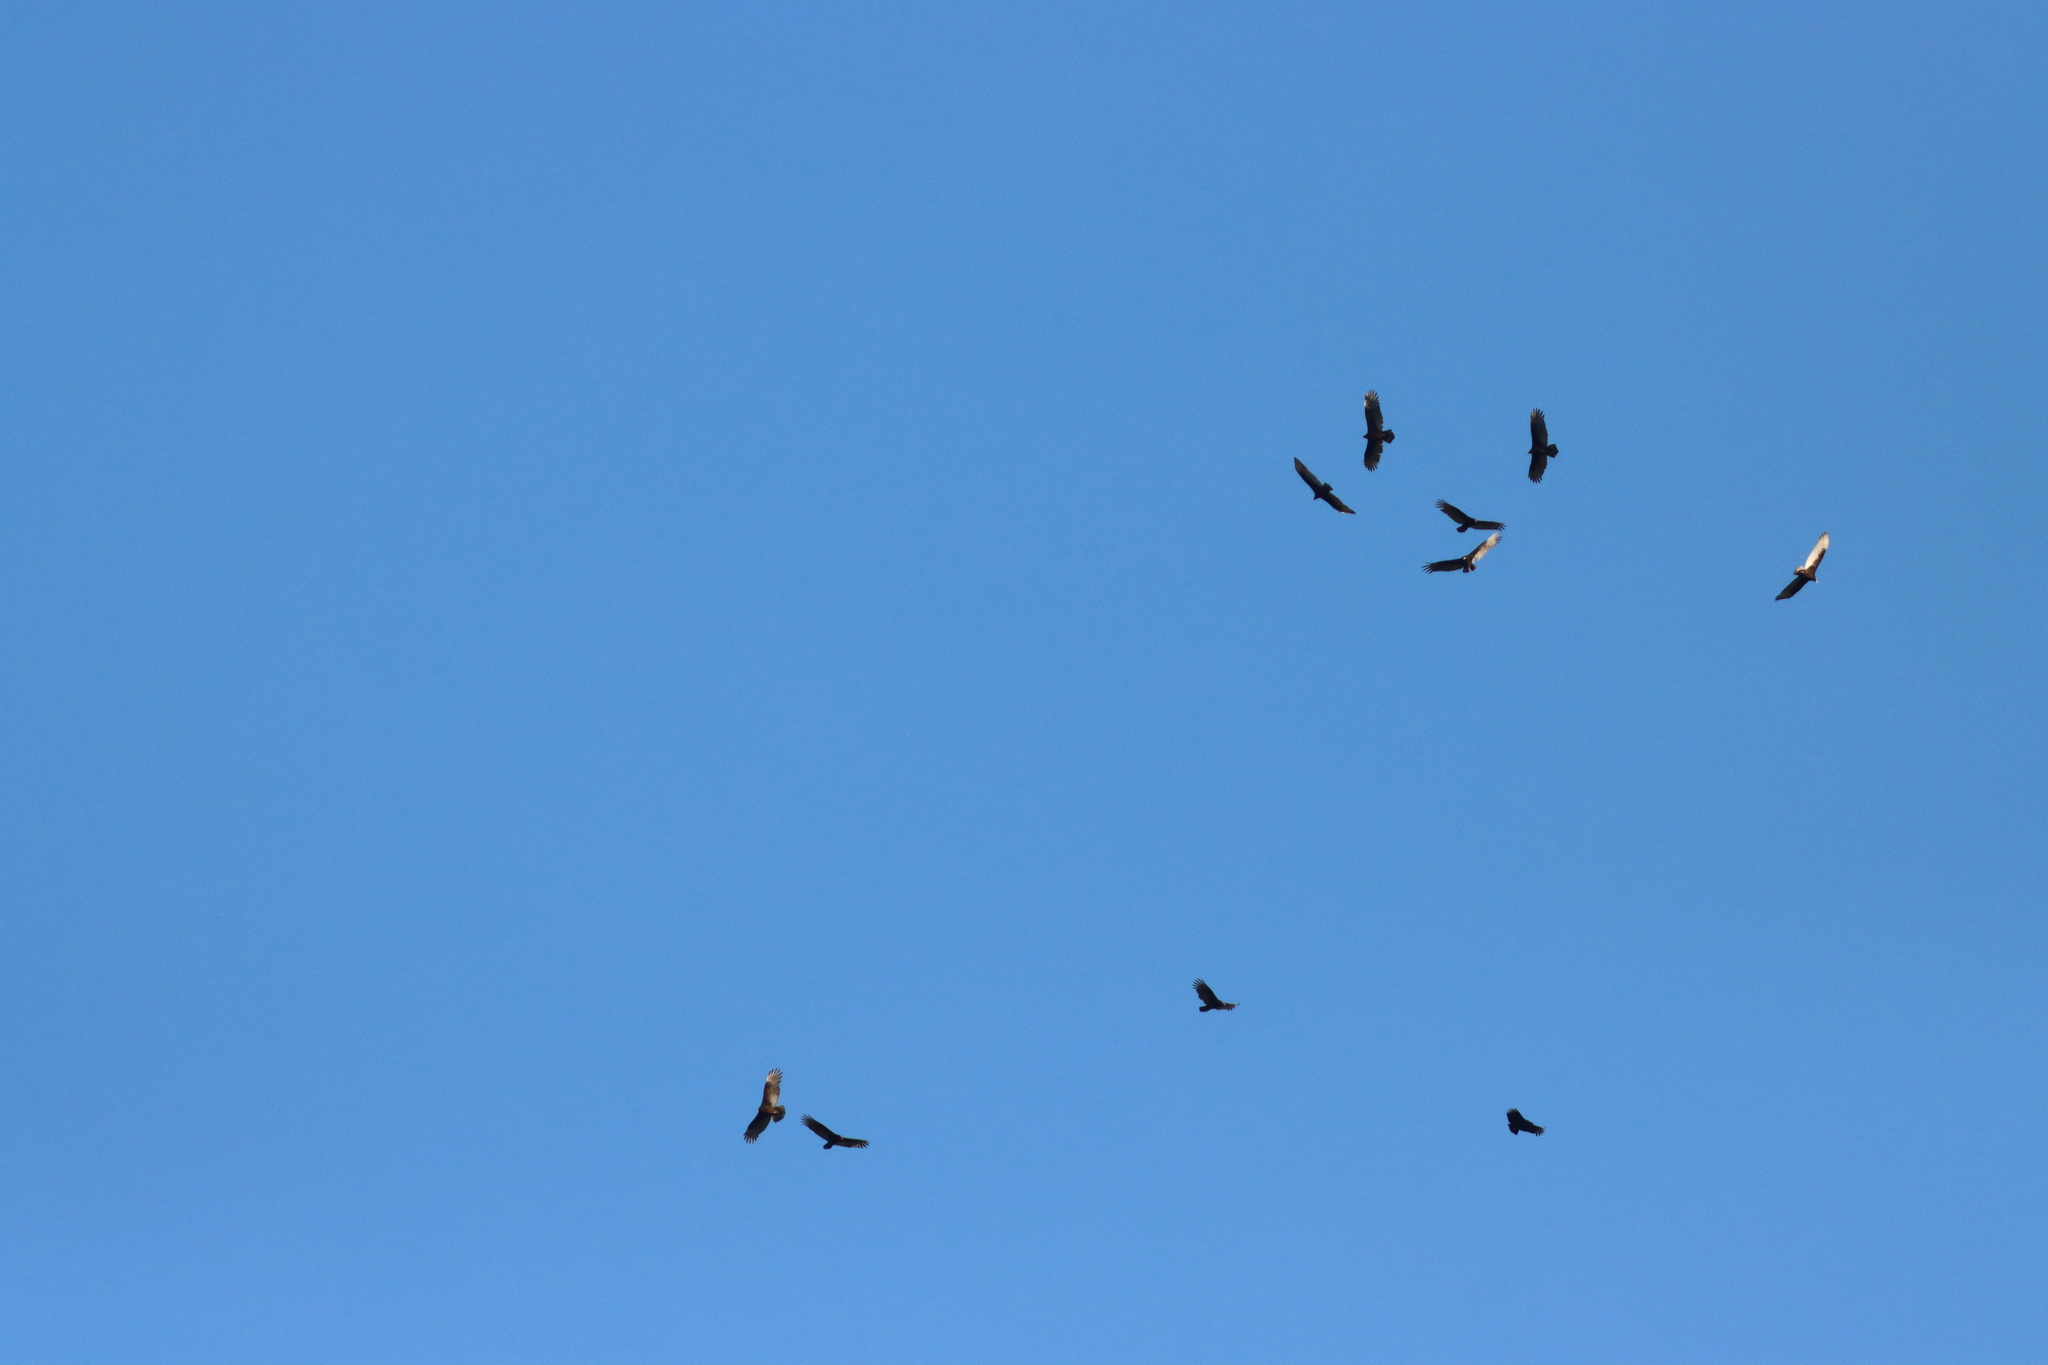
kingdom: Animalia
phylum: Chordata
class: Aves
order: Accipitriformes
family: Cathartidae
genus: Cathartes
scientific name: Cathartes aura
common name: Turkey vulture
